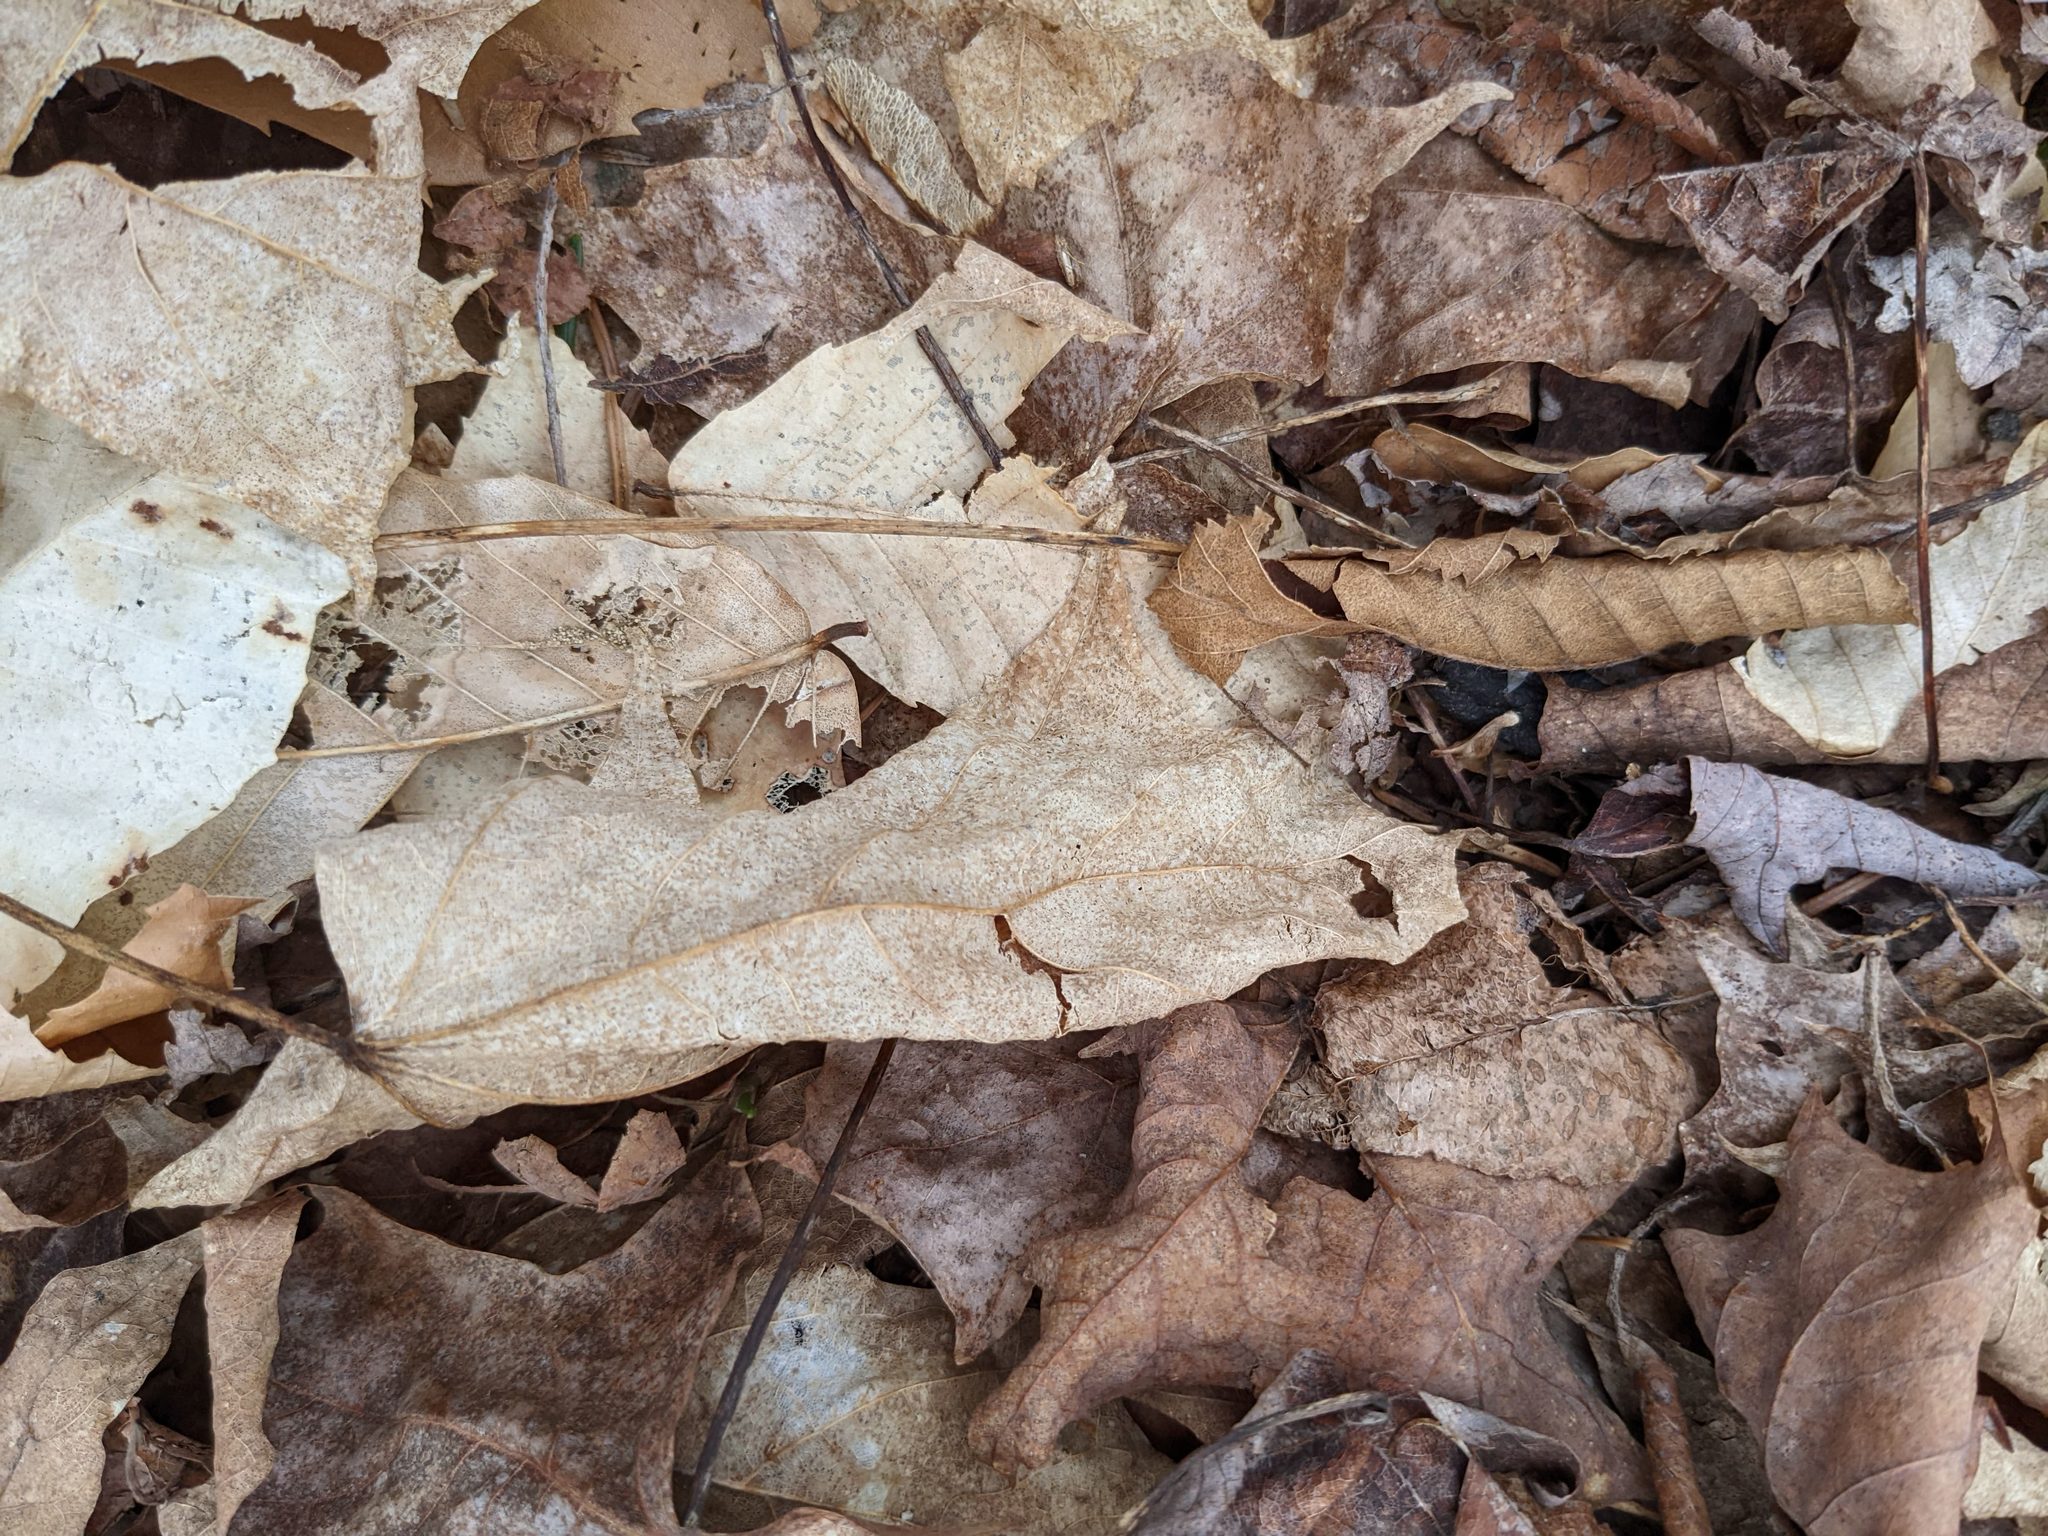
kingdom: Plantae
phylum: Tracheophyta
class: Magnoliopsida
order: Fagales
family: Fagaceae
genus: Fagus
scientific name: Fagus grandifolia
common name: American beech
